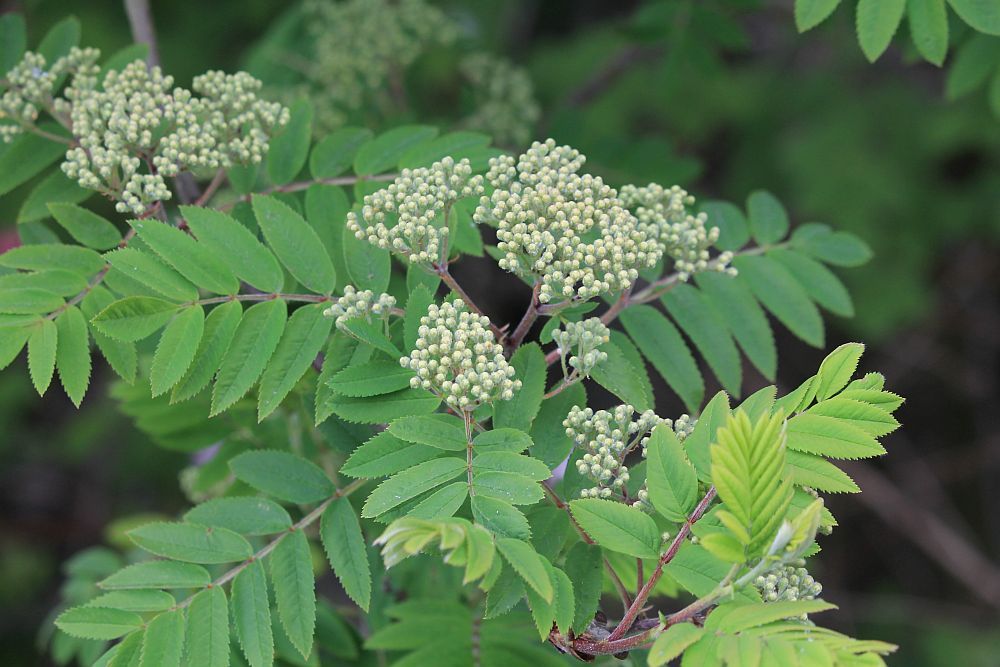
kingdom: Plantae
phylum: Tracheophyta
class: Magnoliopsida
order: Rosales
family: Rosaceae
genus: Sorbus
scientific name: Sorbus aucuparia
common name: Rowan
